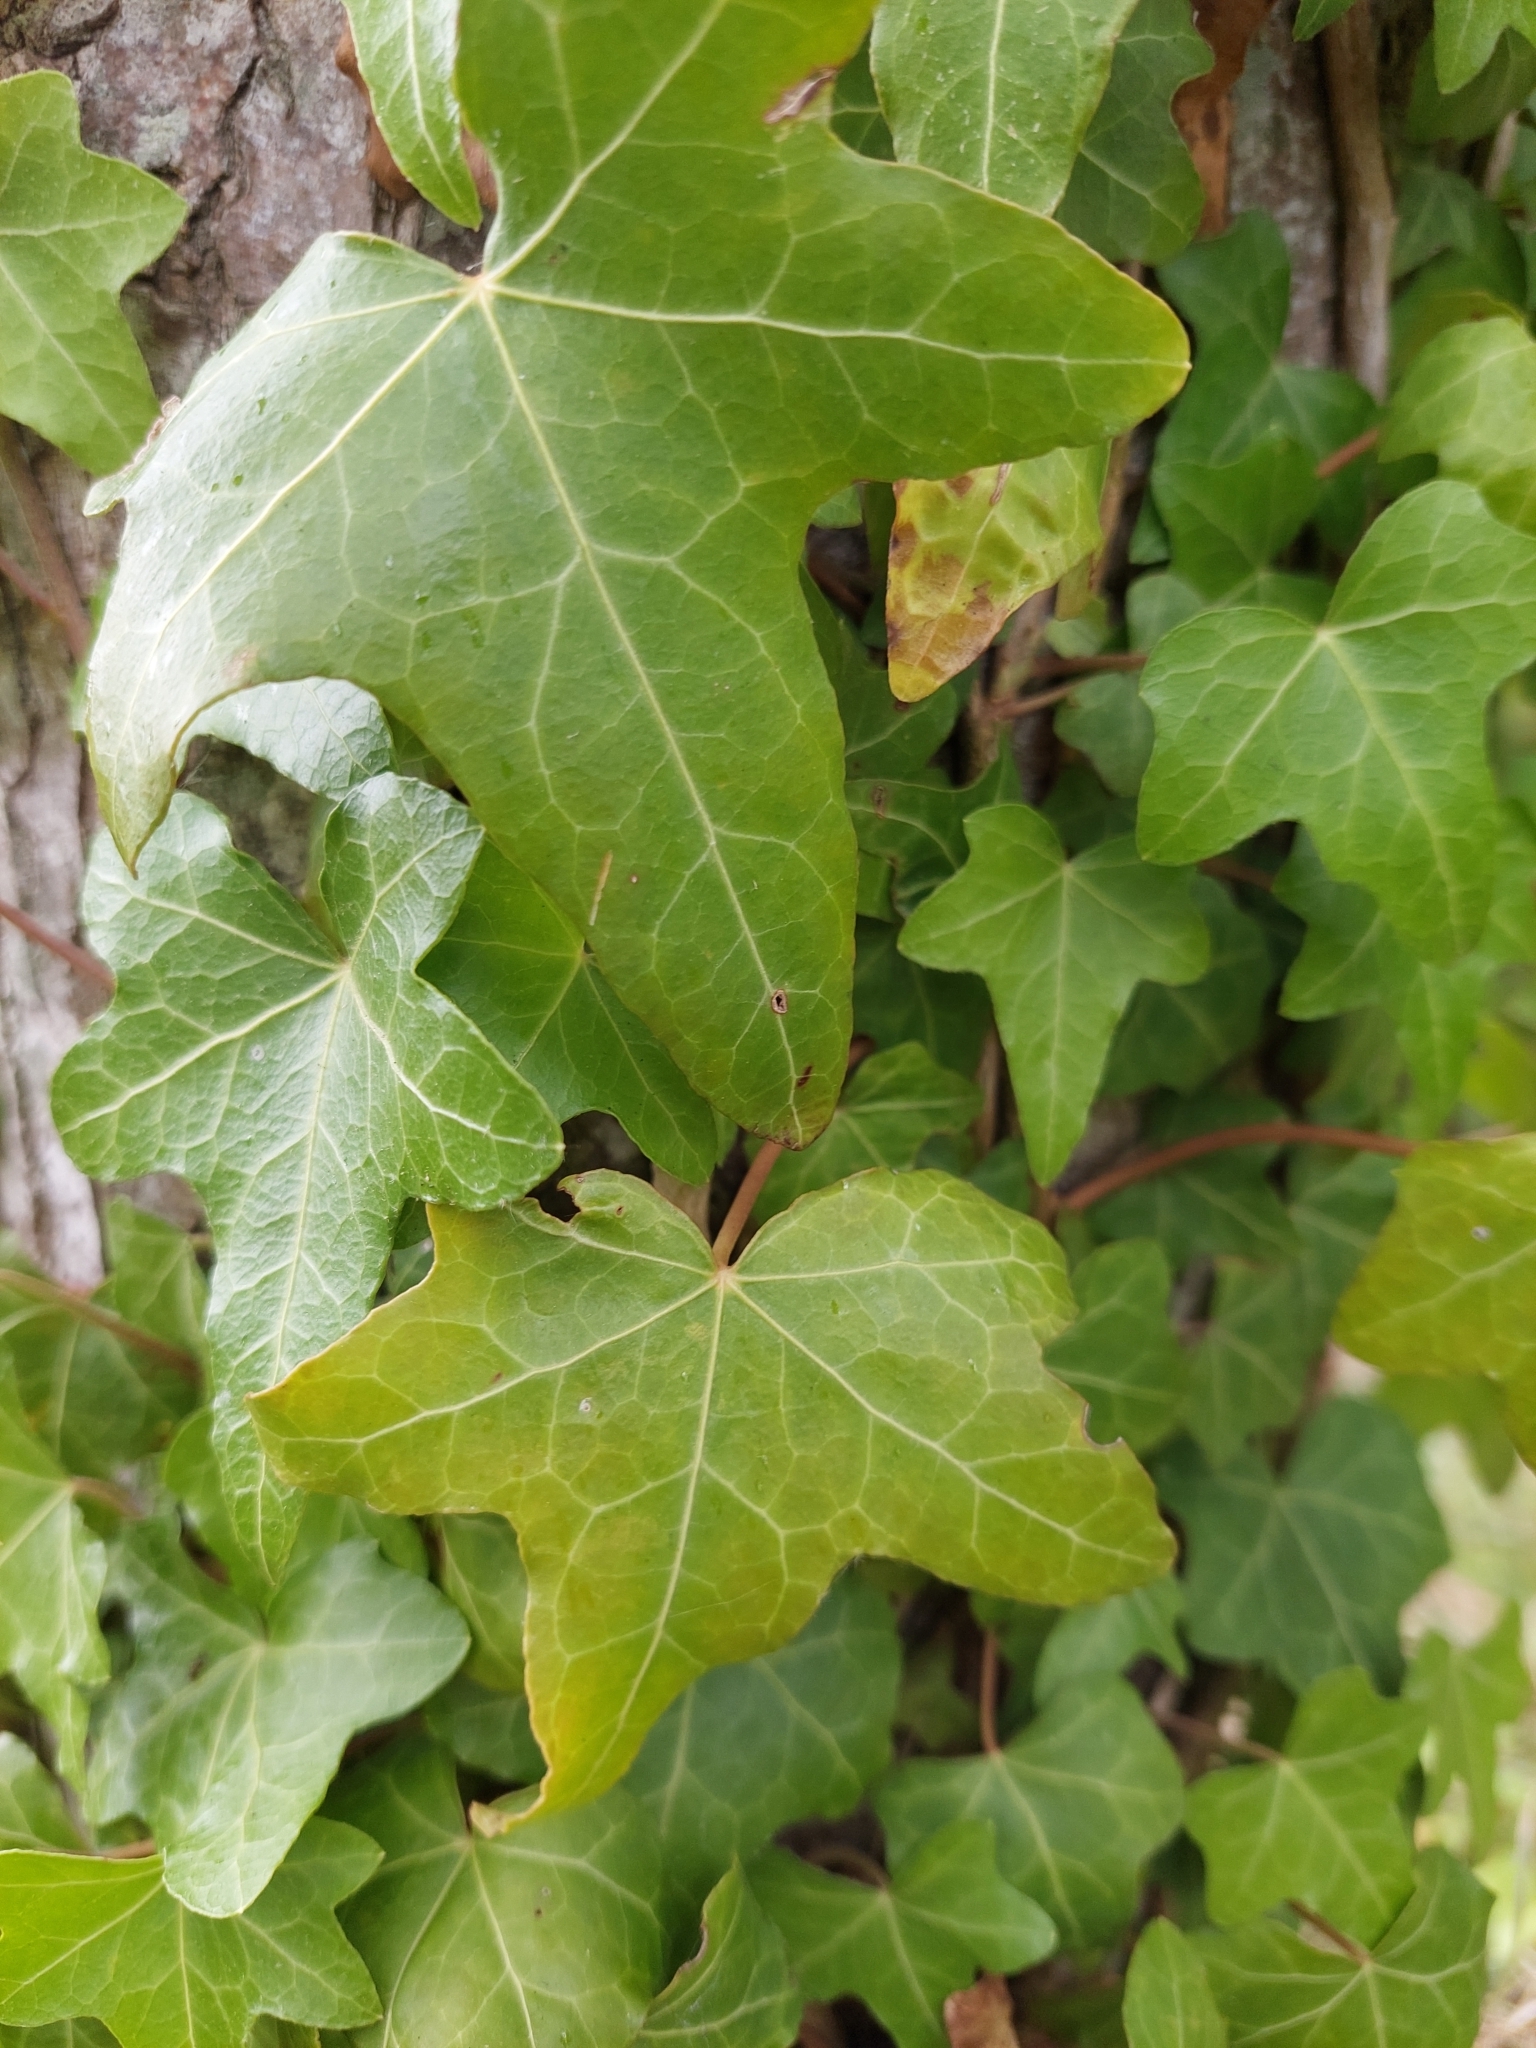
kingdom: Plantae
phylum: Tracheophyta
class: Magnoliopsida
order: Apiales
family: Araliaceae
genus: Hedera
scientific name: Hedera helix
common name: Ivy
